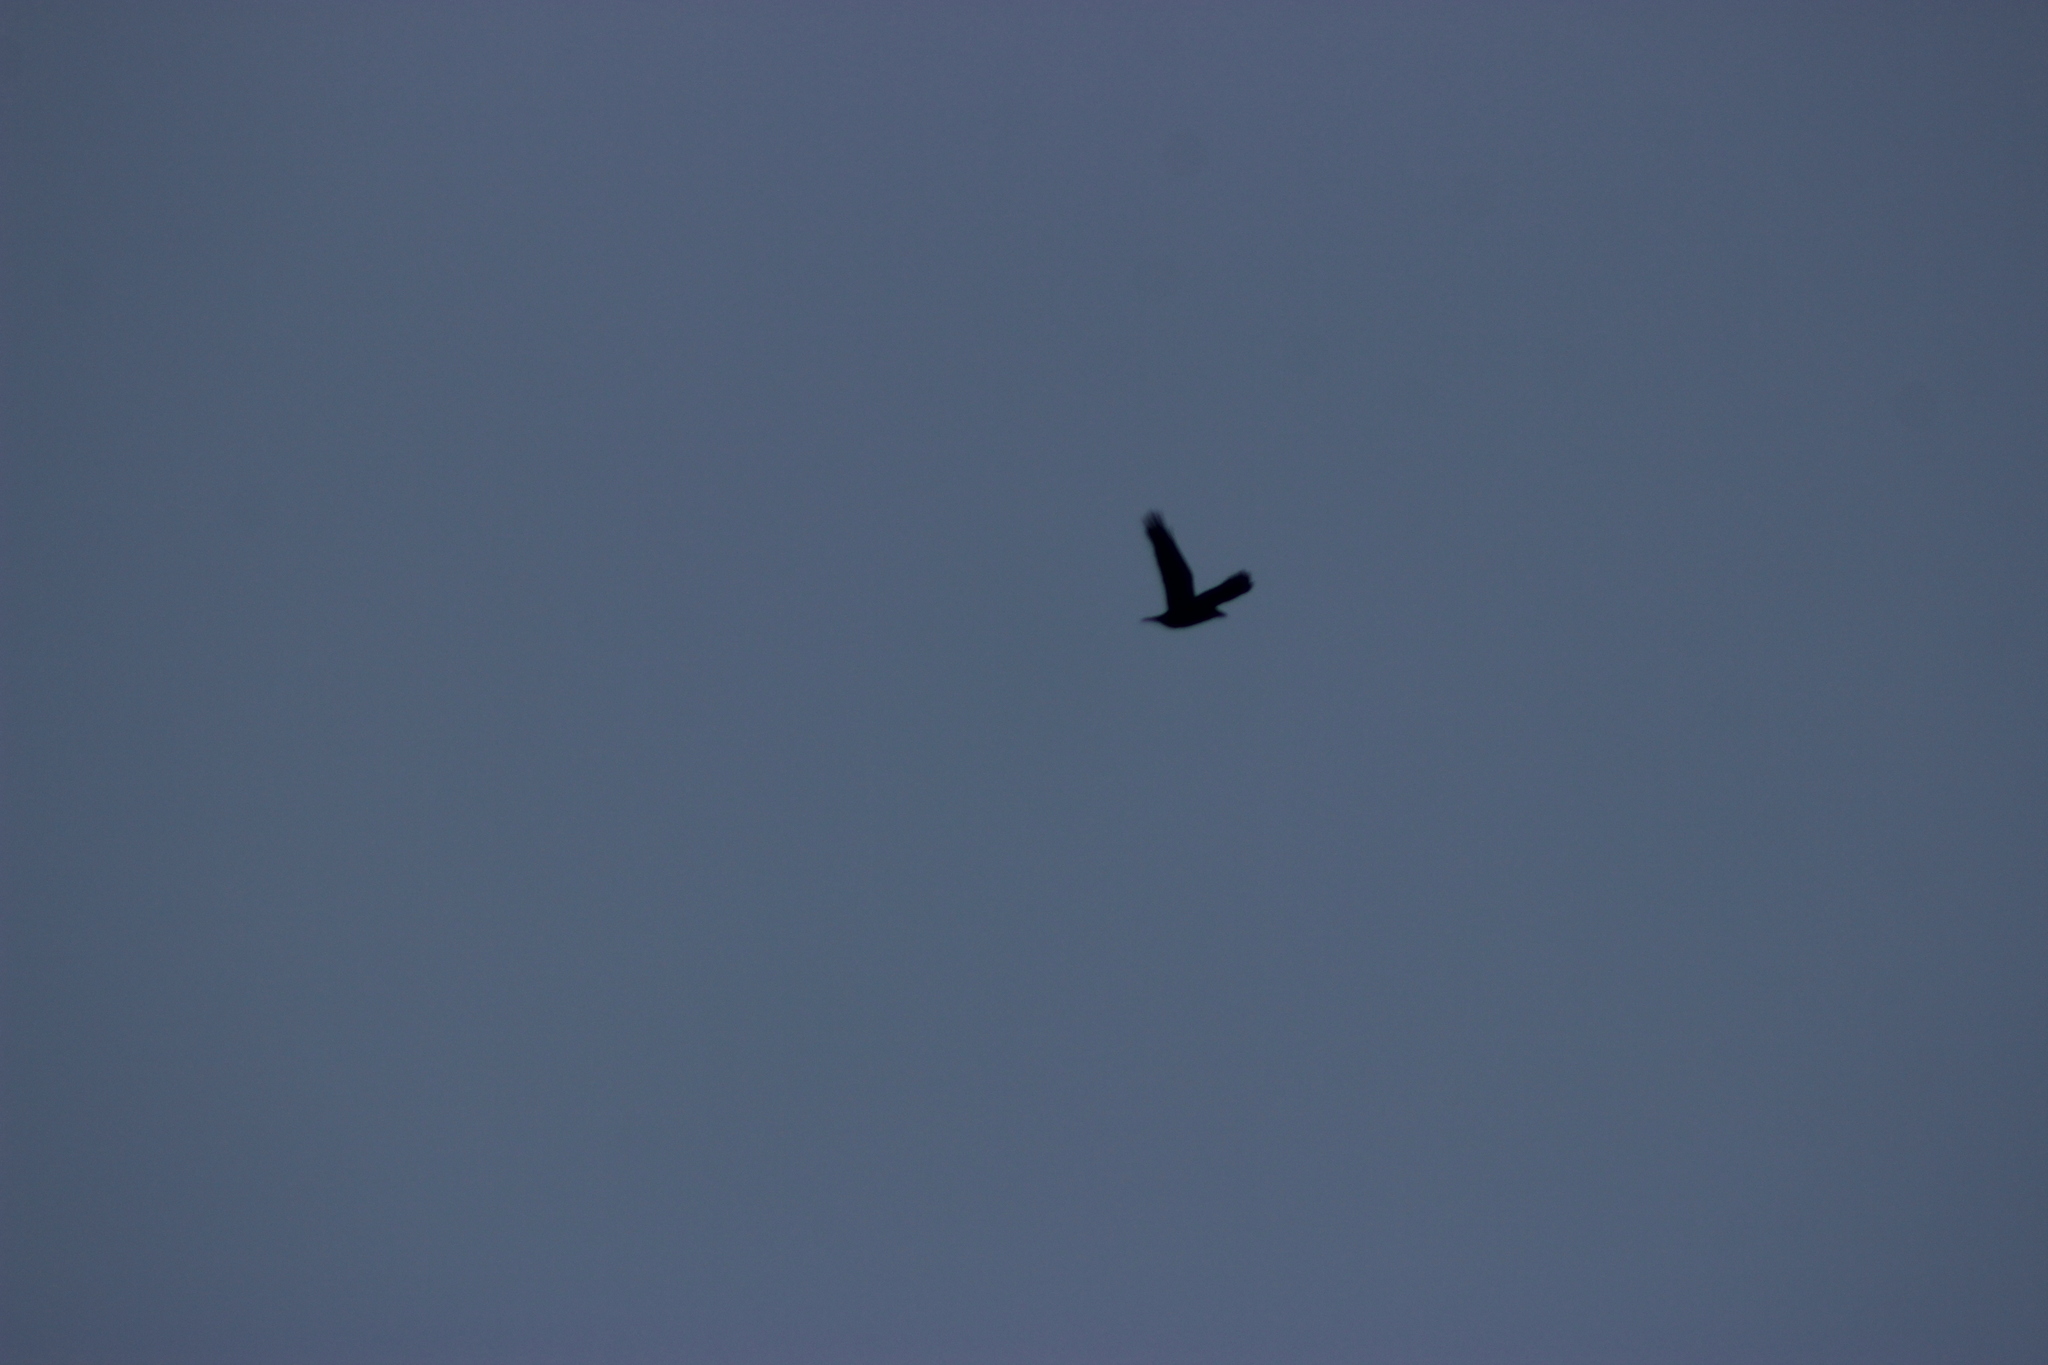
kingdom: Animalia
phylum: Chordata
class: Aves
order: Passeriformes
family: Corvidae
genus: Corvus
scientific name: Corvus corax
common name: Common raven
